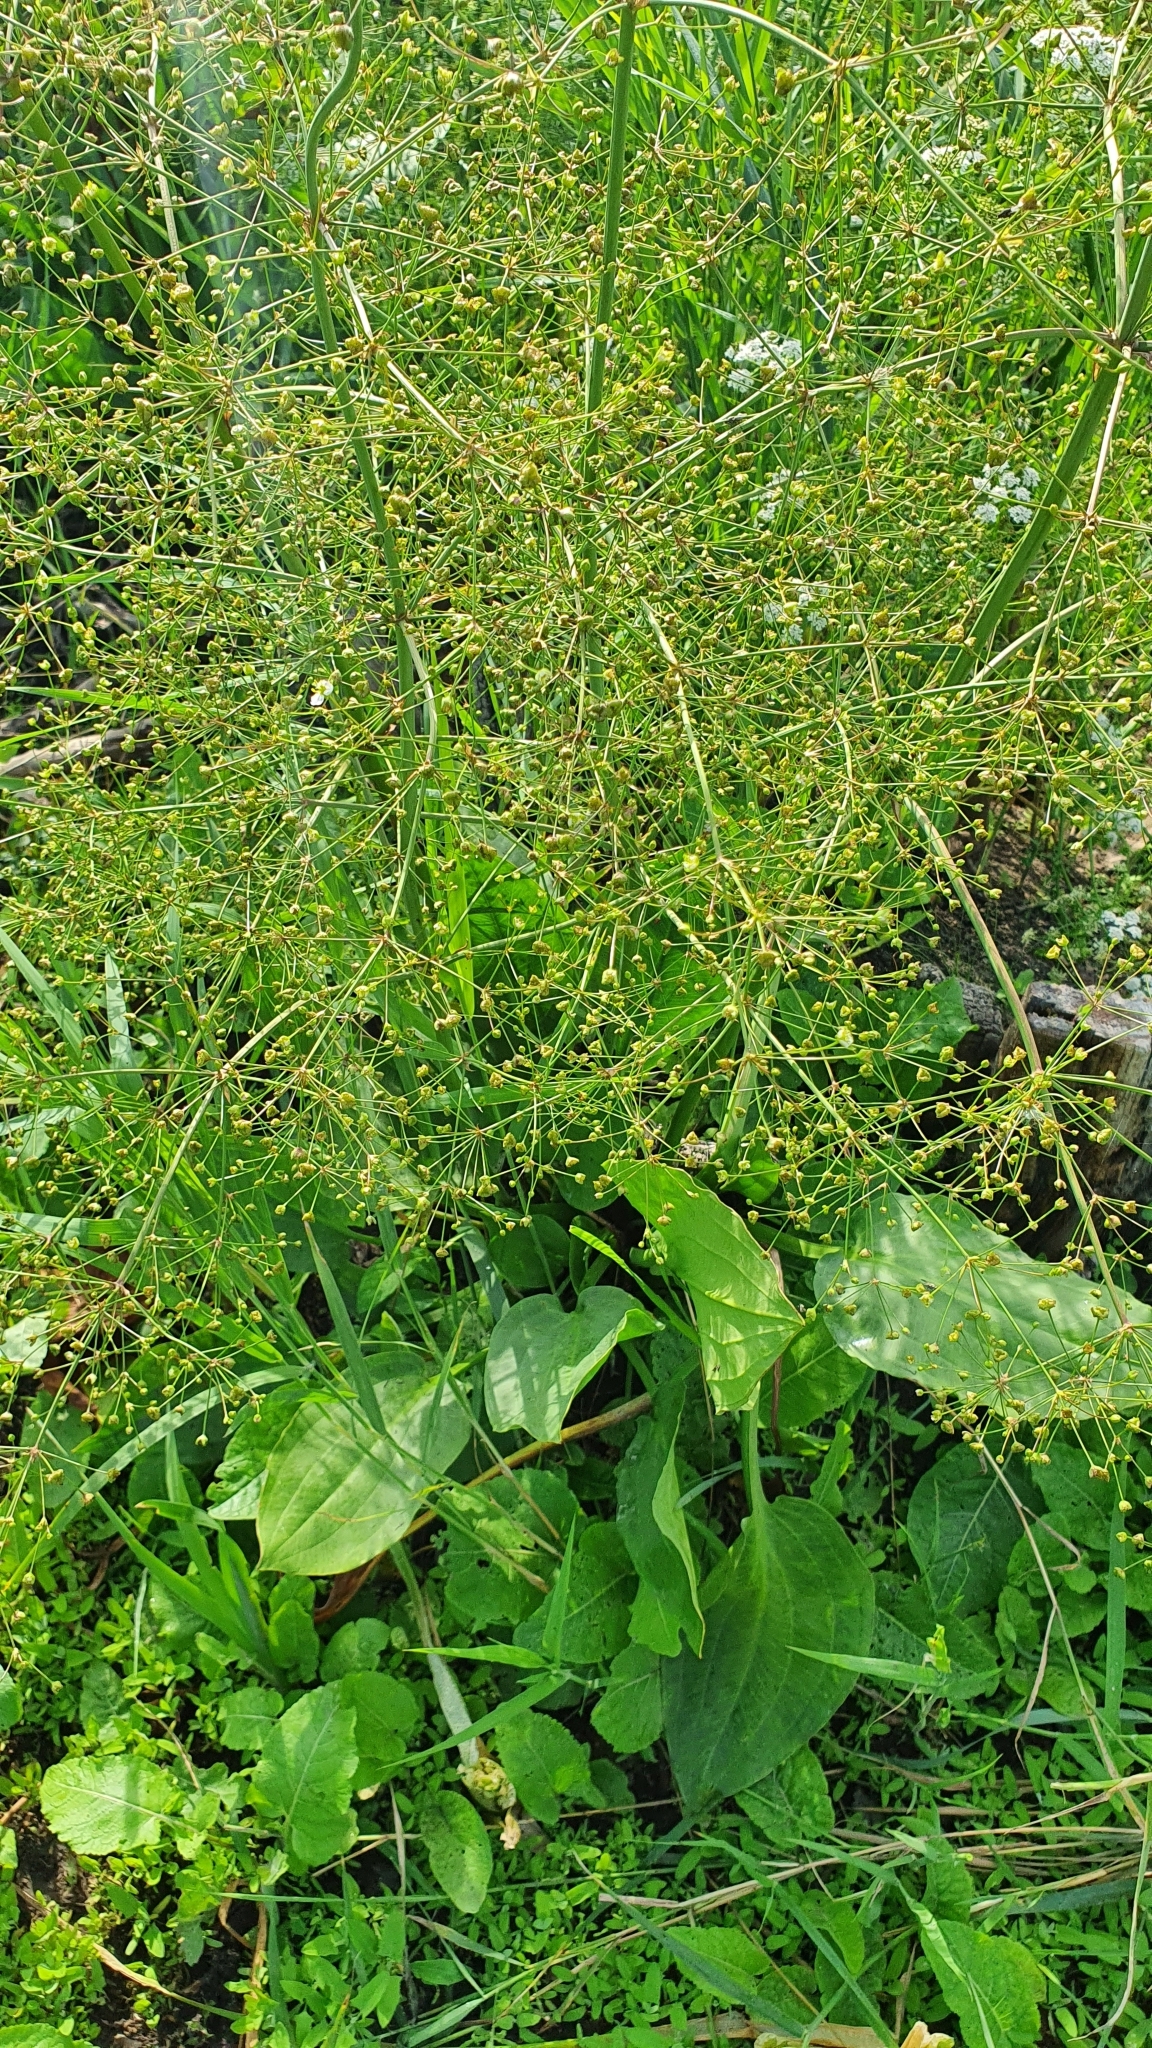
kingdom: Plantae
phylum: Tracheophyta
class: Liliopsida
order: Alismatales
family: Alismataceae
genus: Alisma
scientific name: Alisma plantago-aquatica
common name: Water-plantain
